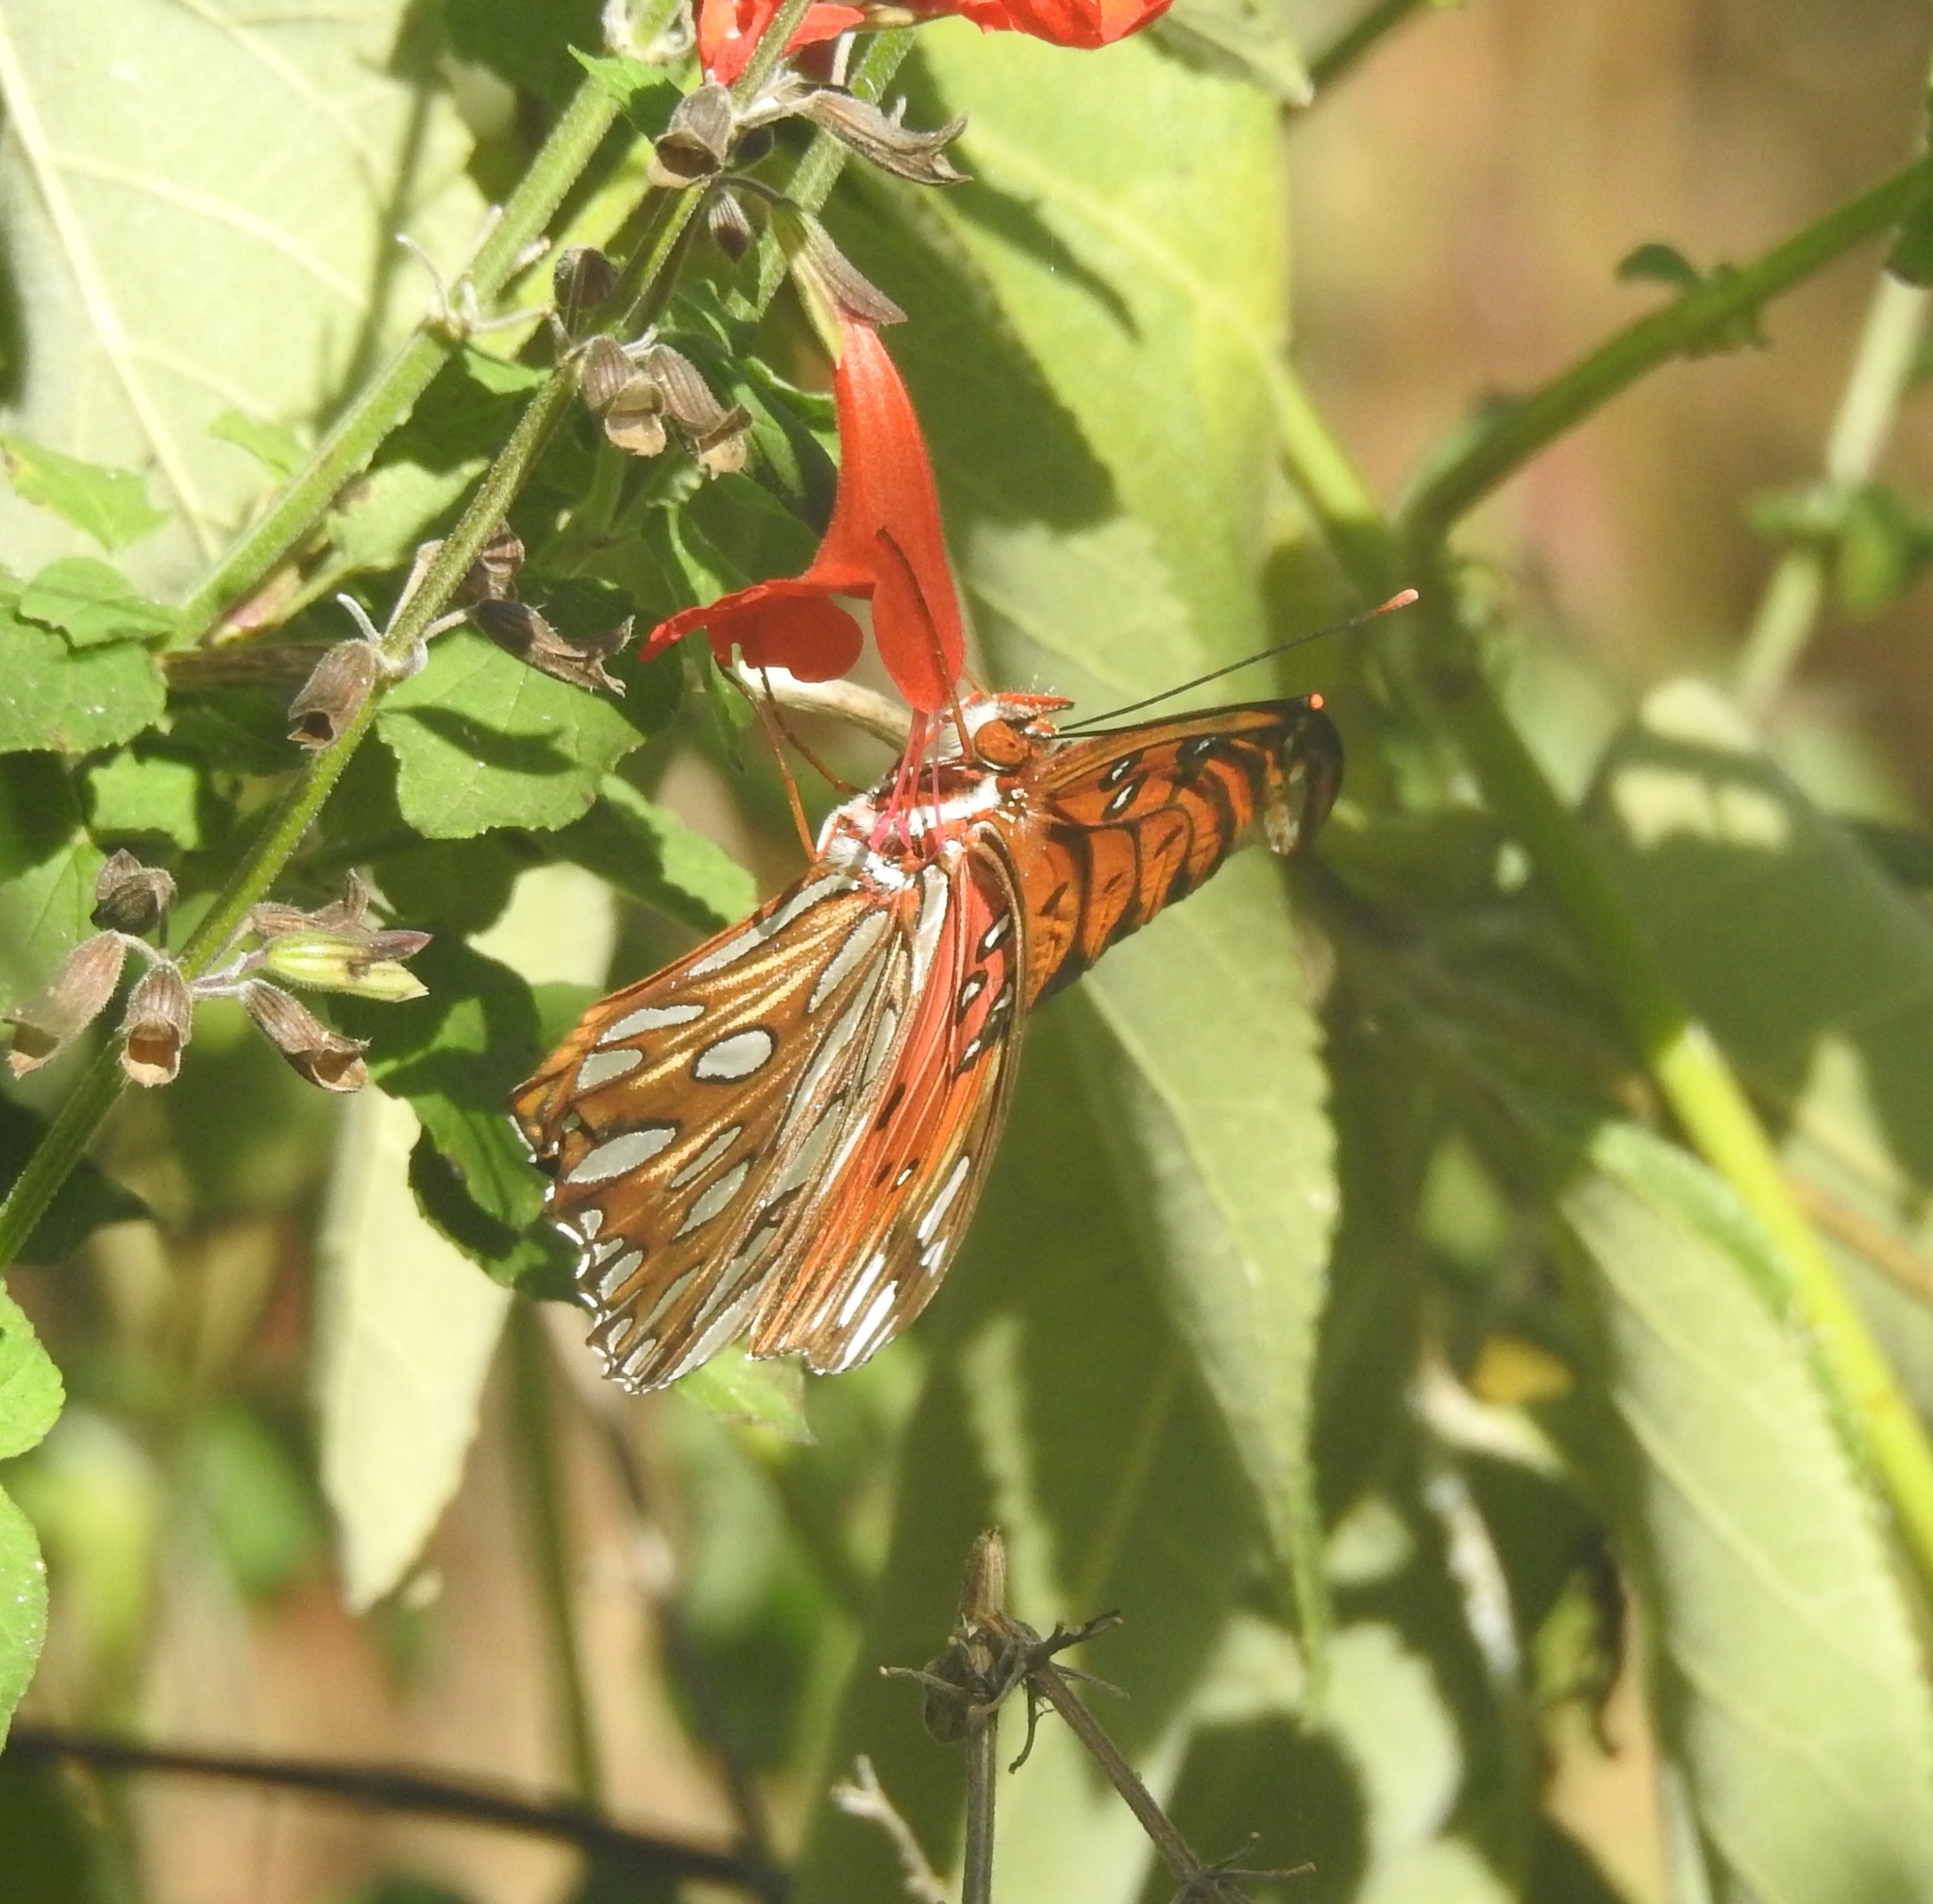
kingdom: Animalia
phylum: Arthropoda
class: Insecta
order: Lepidoptera
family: Nymphalidae
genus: Dione
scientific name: Dione vanillae
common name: Gulf fritillary
